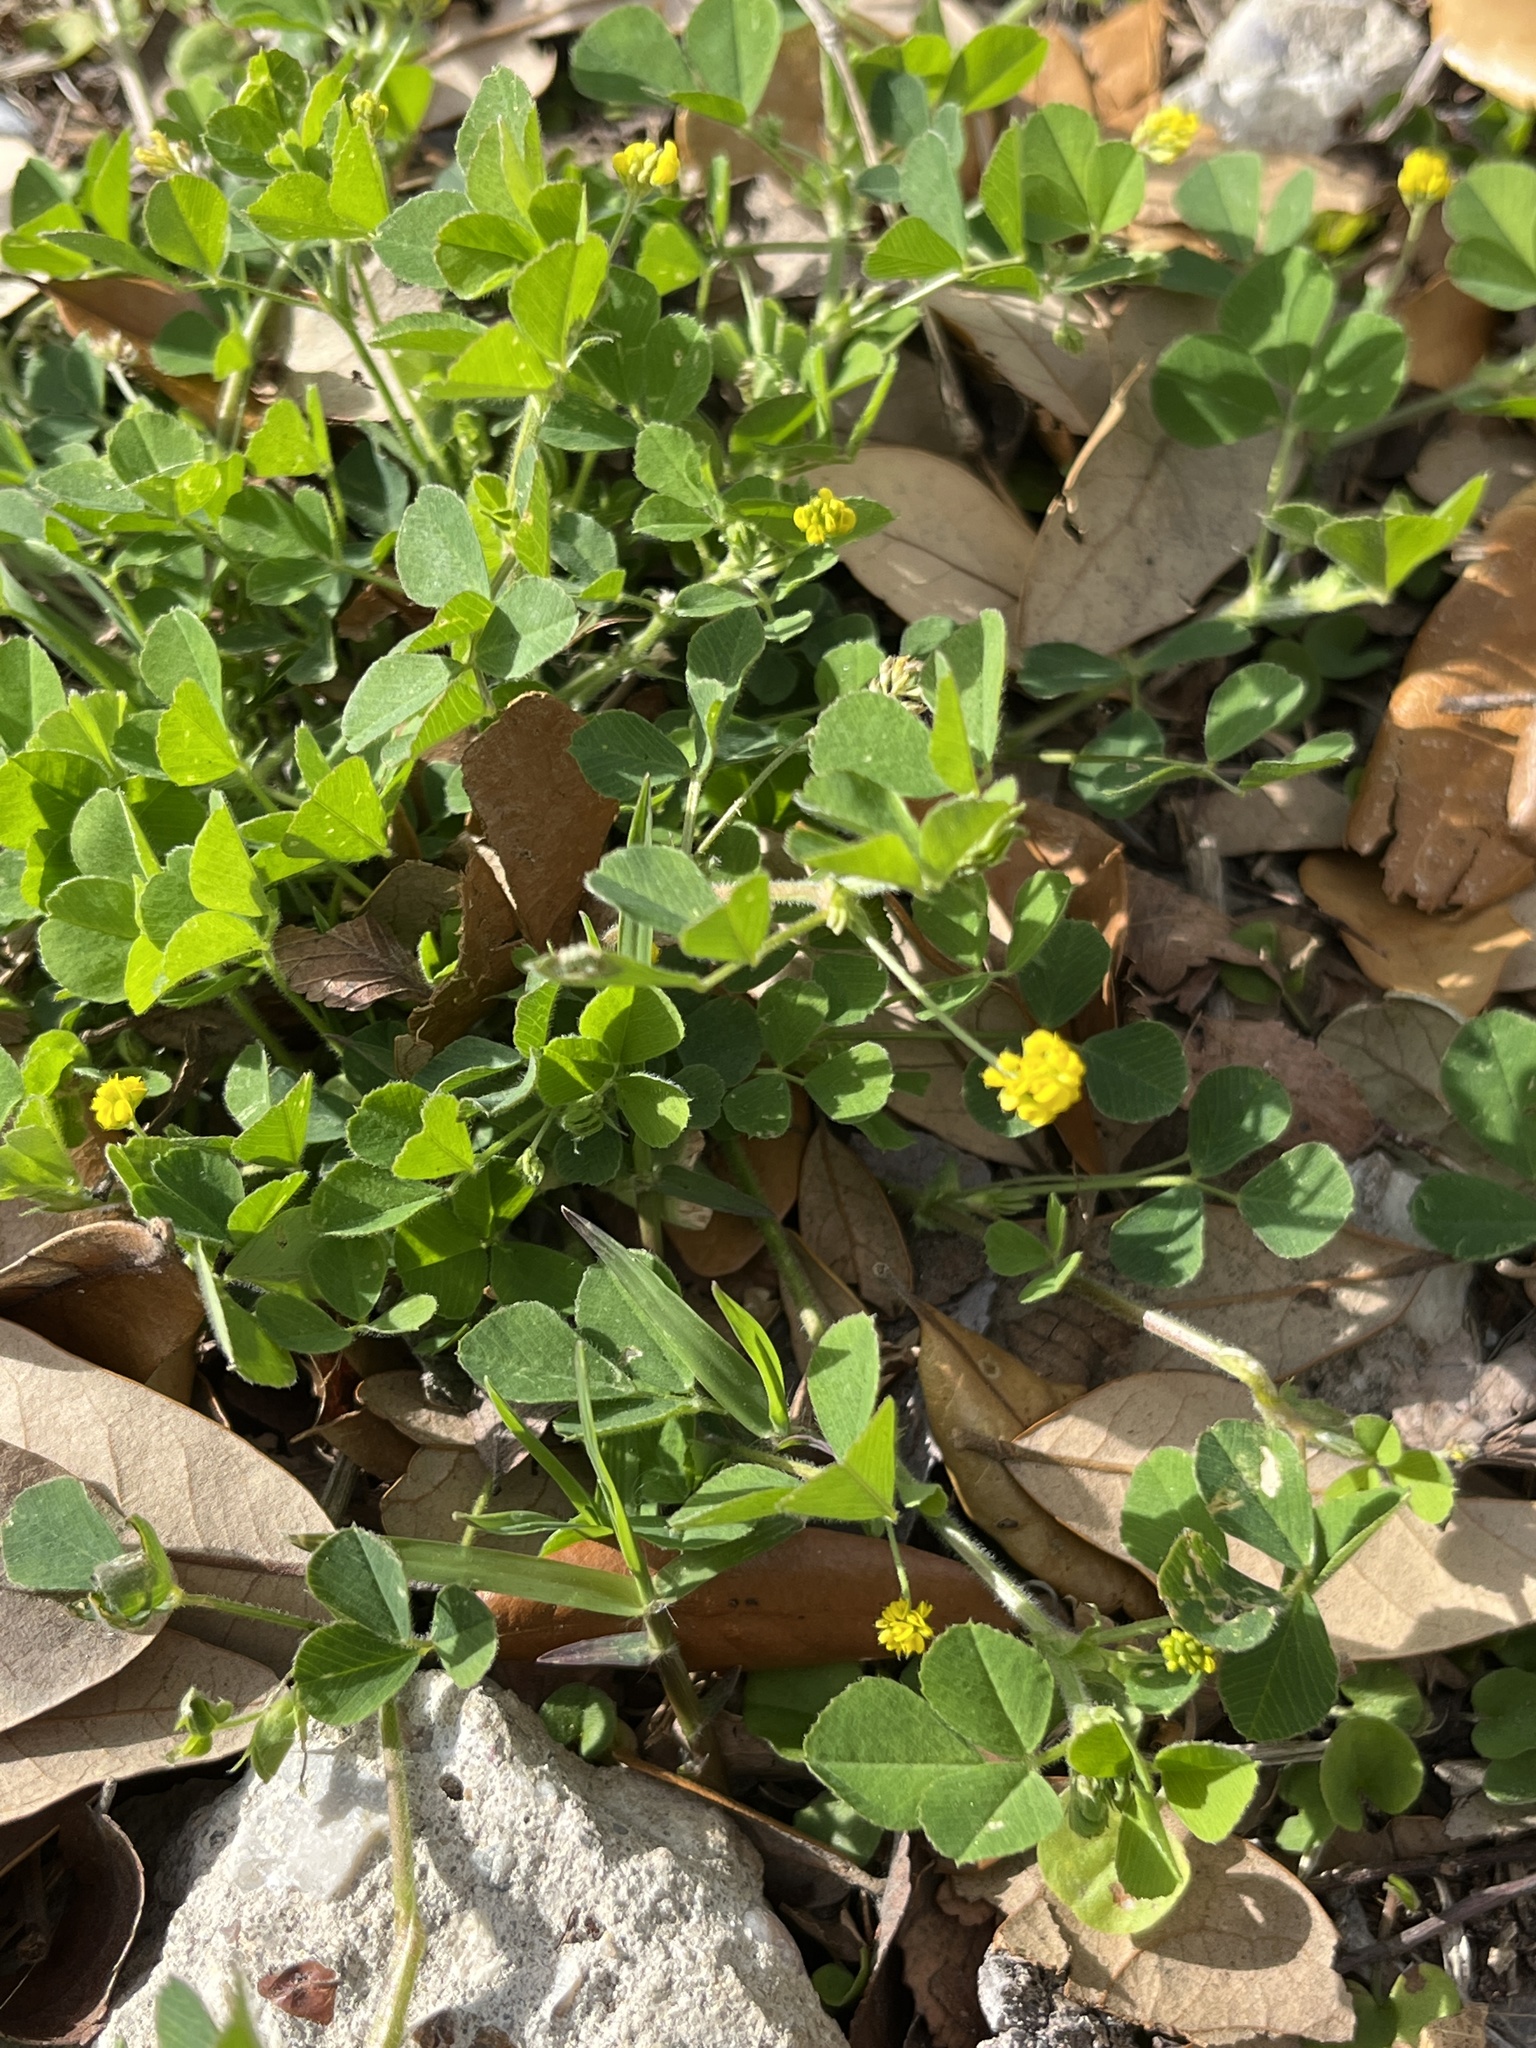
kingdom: Plantae
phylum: Tracheophyta
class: Magnoliopsida
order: Fabales
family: Fabaceae
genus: Medicago
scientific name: Medicago lupulina
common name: Black medick
